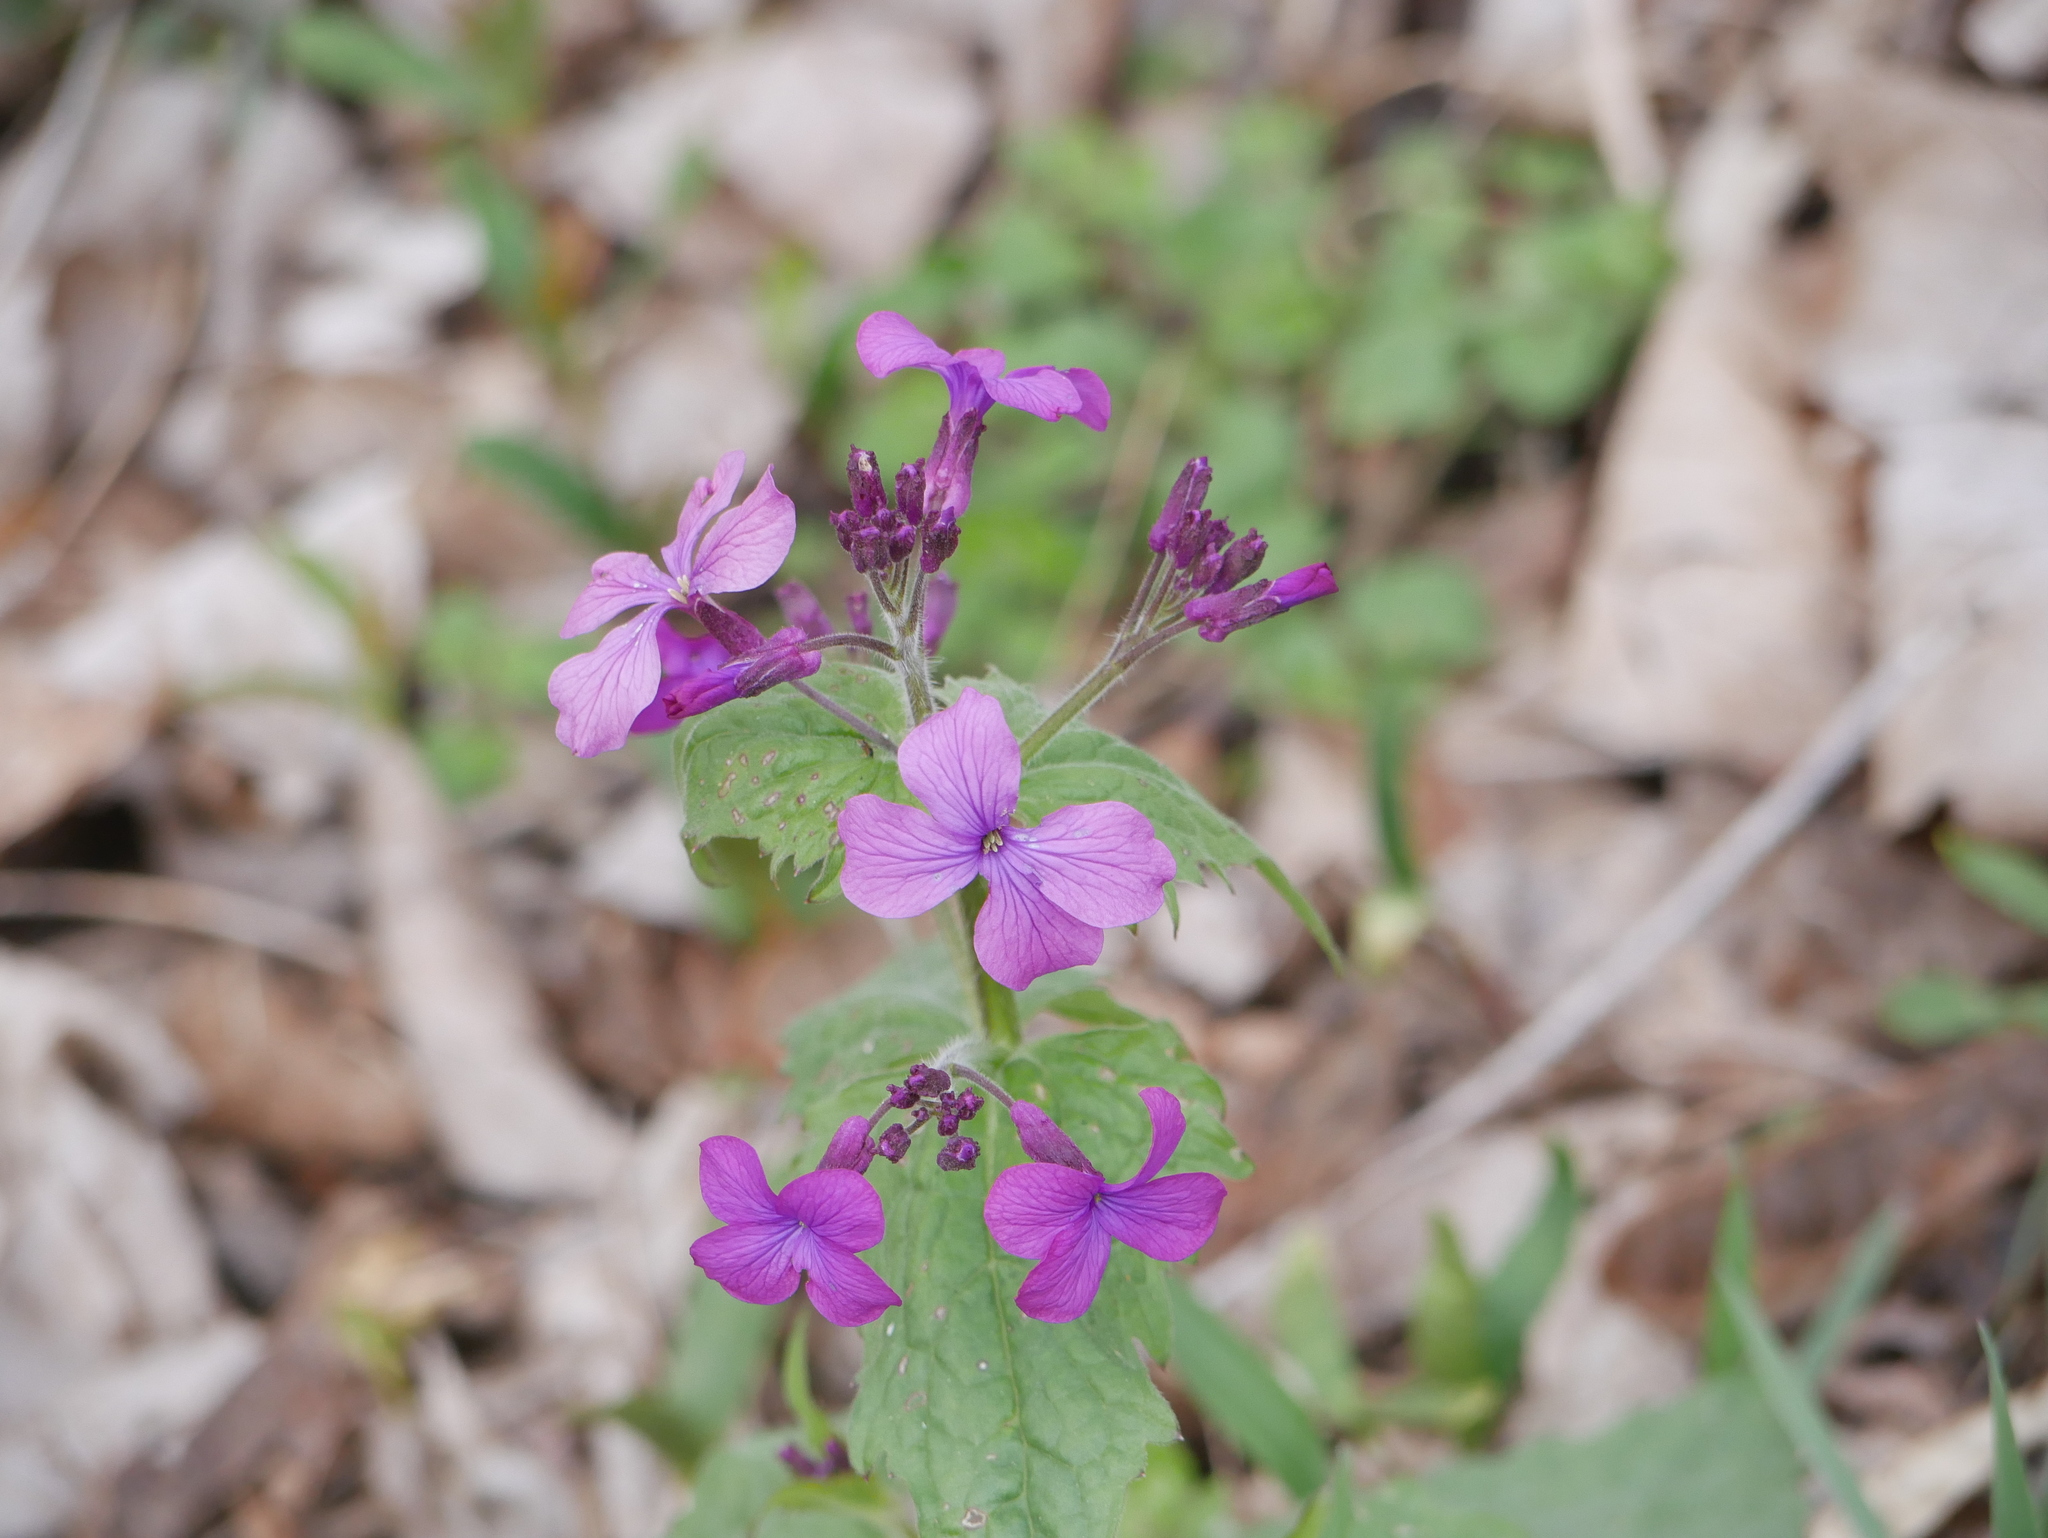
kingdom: Plantae
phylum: Tracheophyta
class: Magnoliopsida
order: Brassicales
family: Brassicaceae
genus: Lunaria
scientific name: Lunaria annua
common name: Honesty
